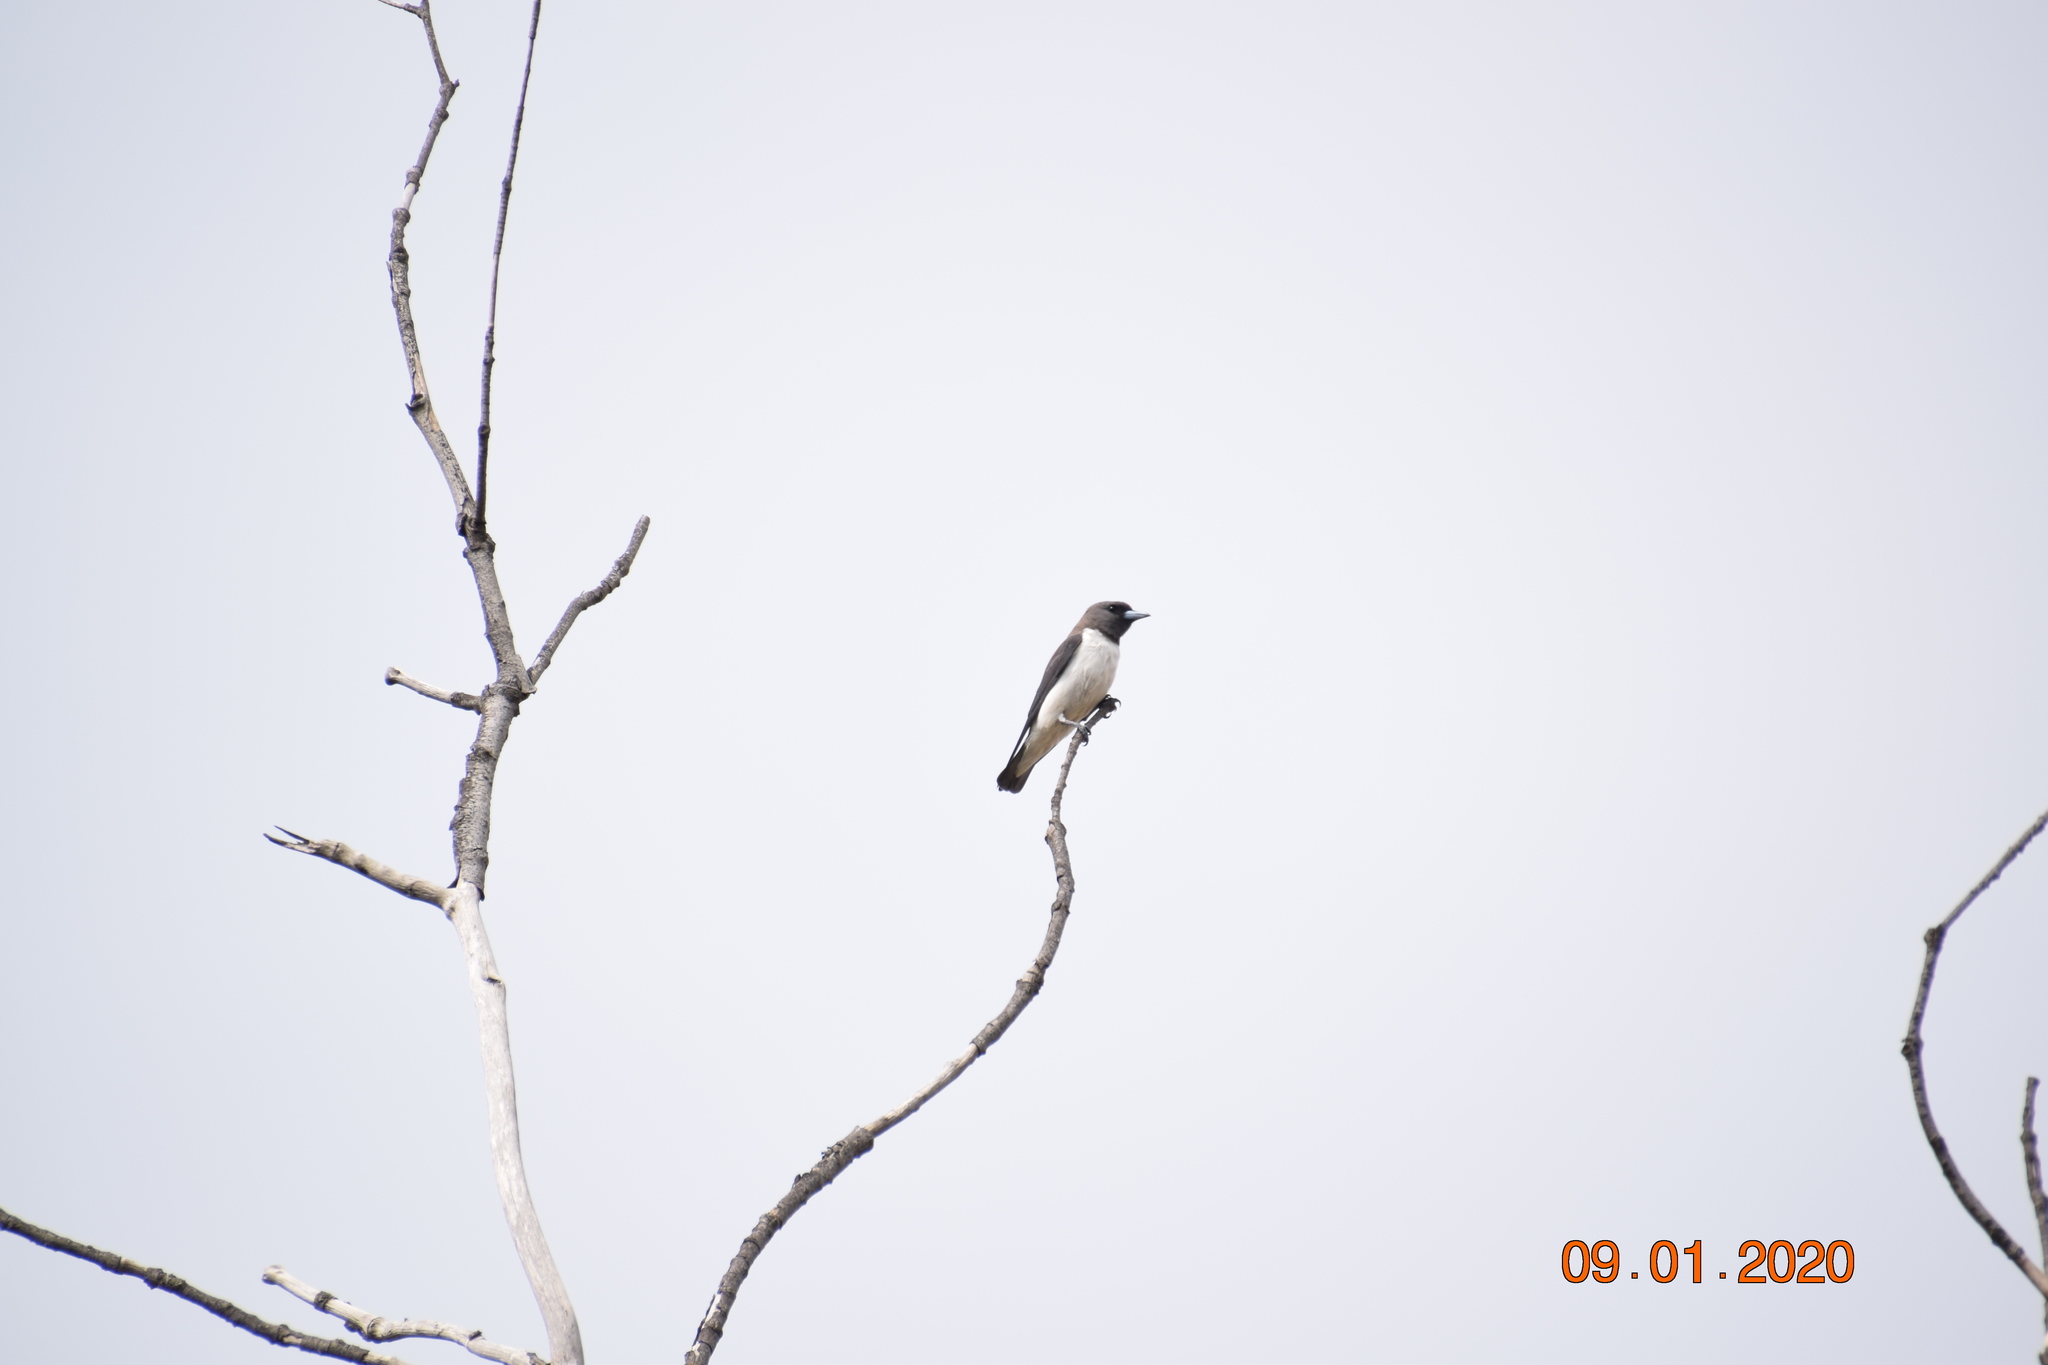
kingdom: Animalia
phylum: Chordata
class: Aves
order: Passeriformes
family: Artamidae
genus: Artamus
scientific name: Artamus leucoryn
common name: White-breasted woodswallow
